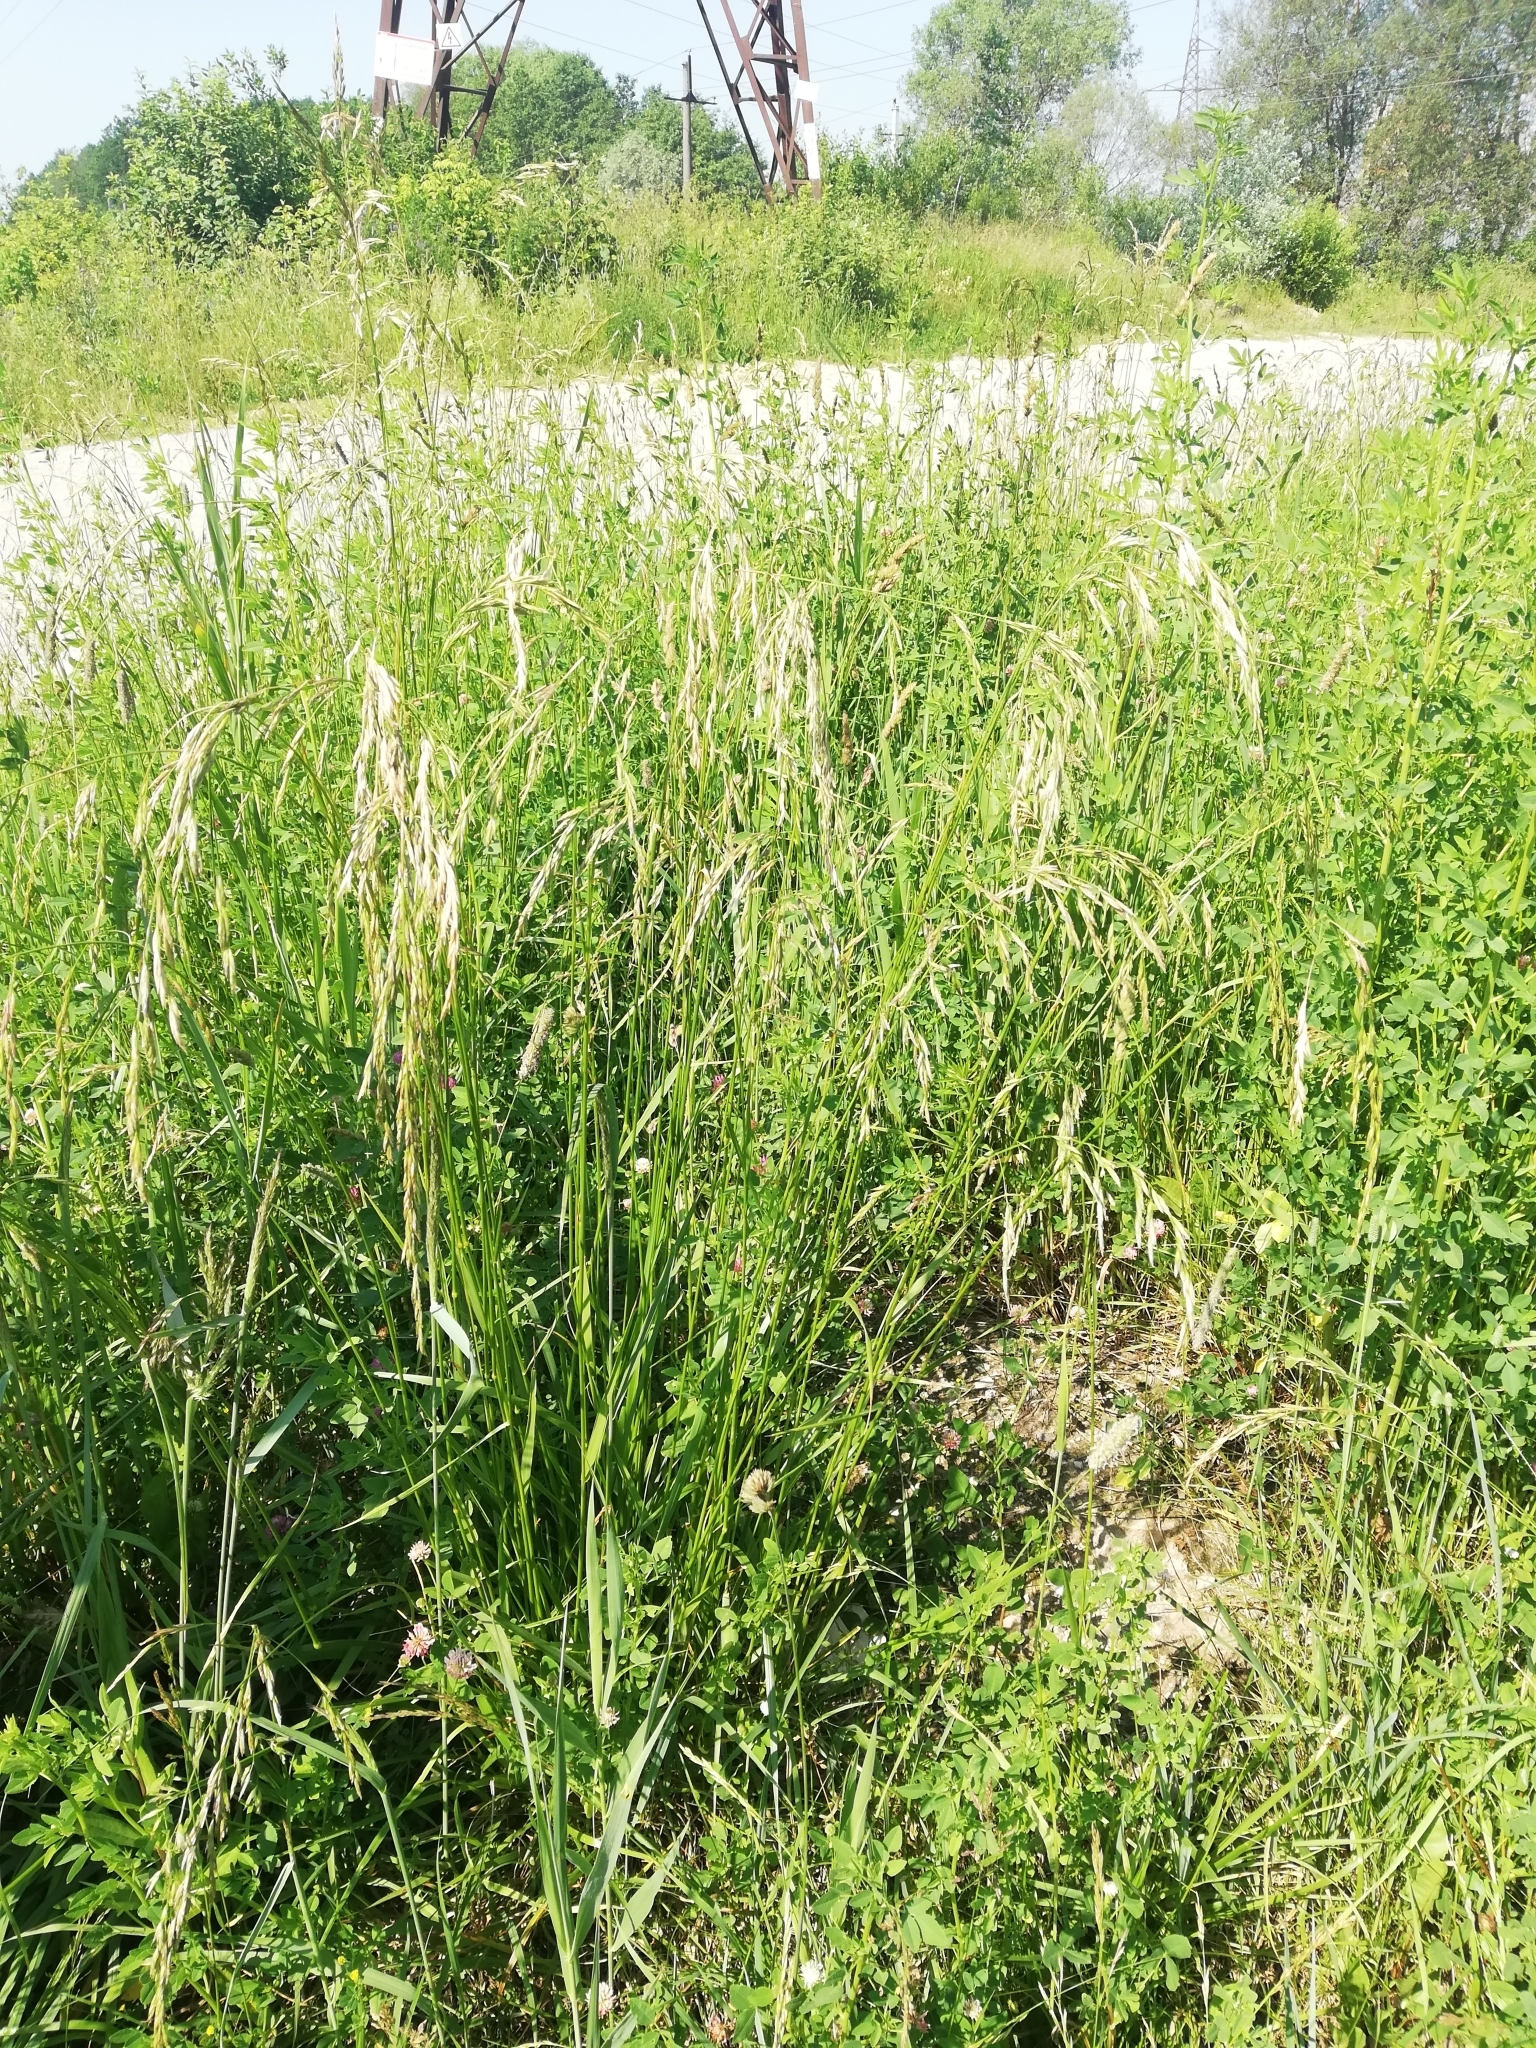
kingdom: Plantae
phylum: Tracheophyta
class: Liliopsida
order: Poales
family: Poaceae
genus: Lolium
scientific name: Lolium arundinaceum
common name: Reed fescue
